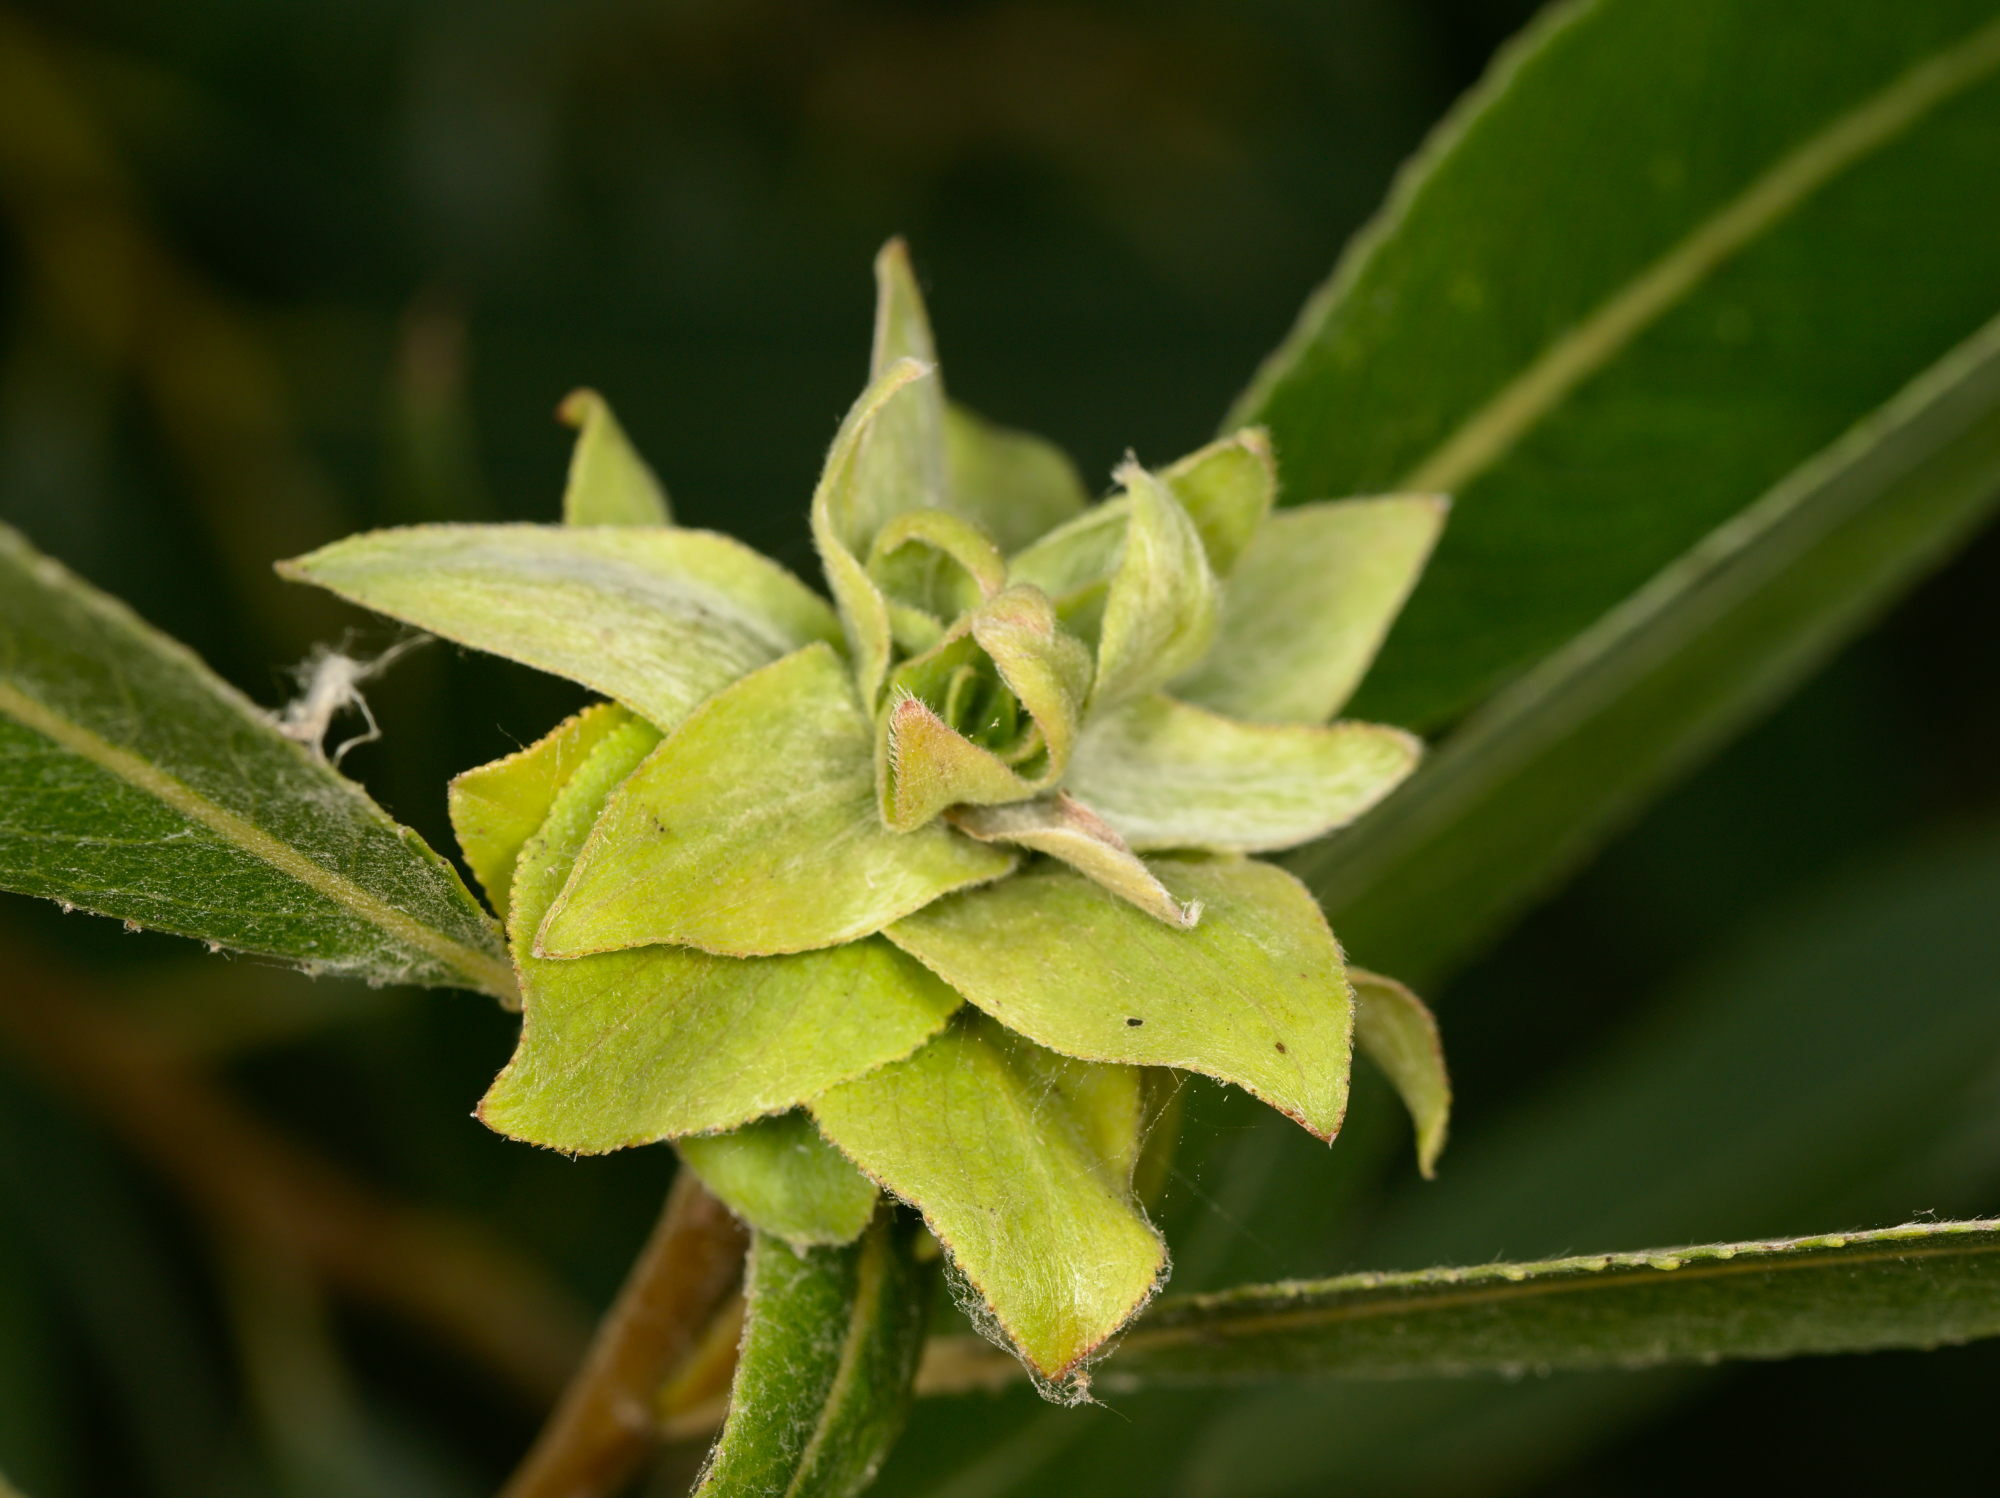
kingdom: Animalia
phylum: Arthropoda
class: Insecta
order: Diptera
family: Cecidomyiidae
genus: Rabdophaga
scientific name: Rabdophaga rosaria
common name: Willow rose gall midge
